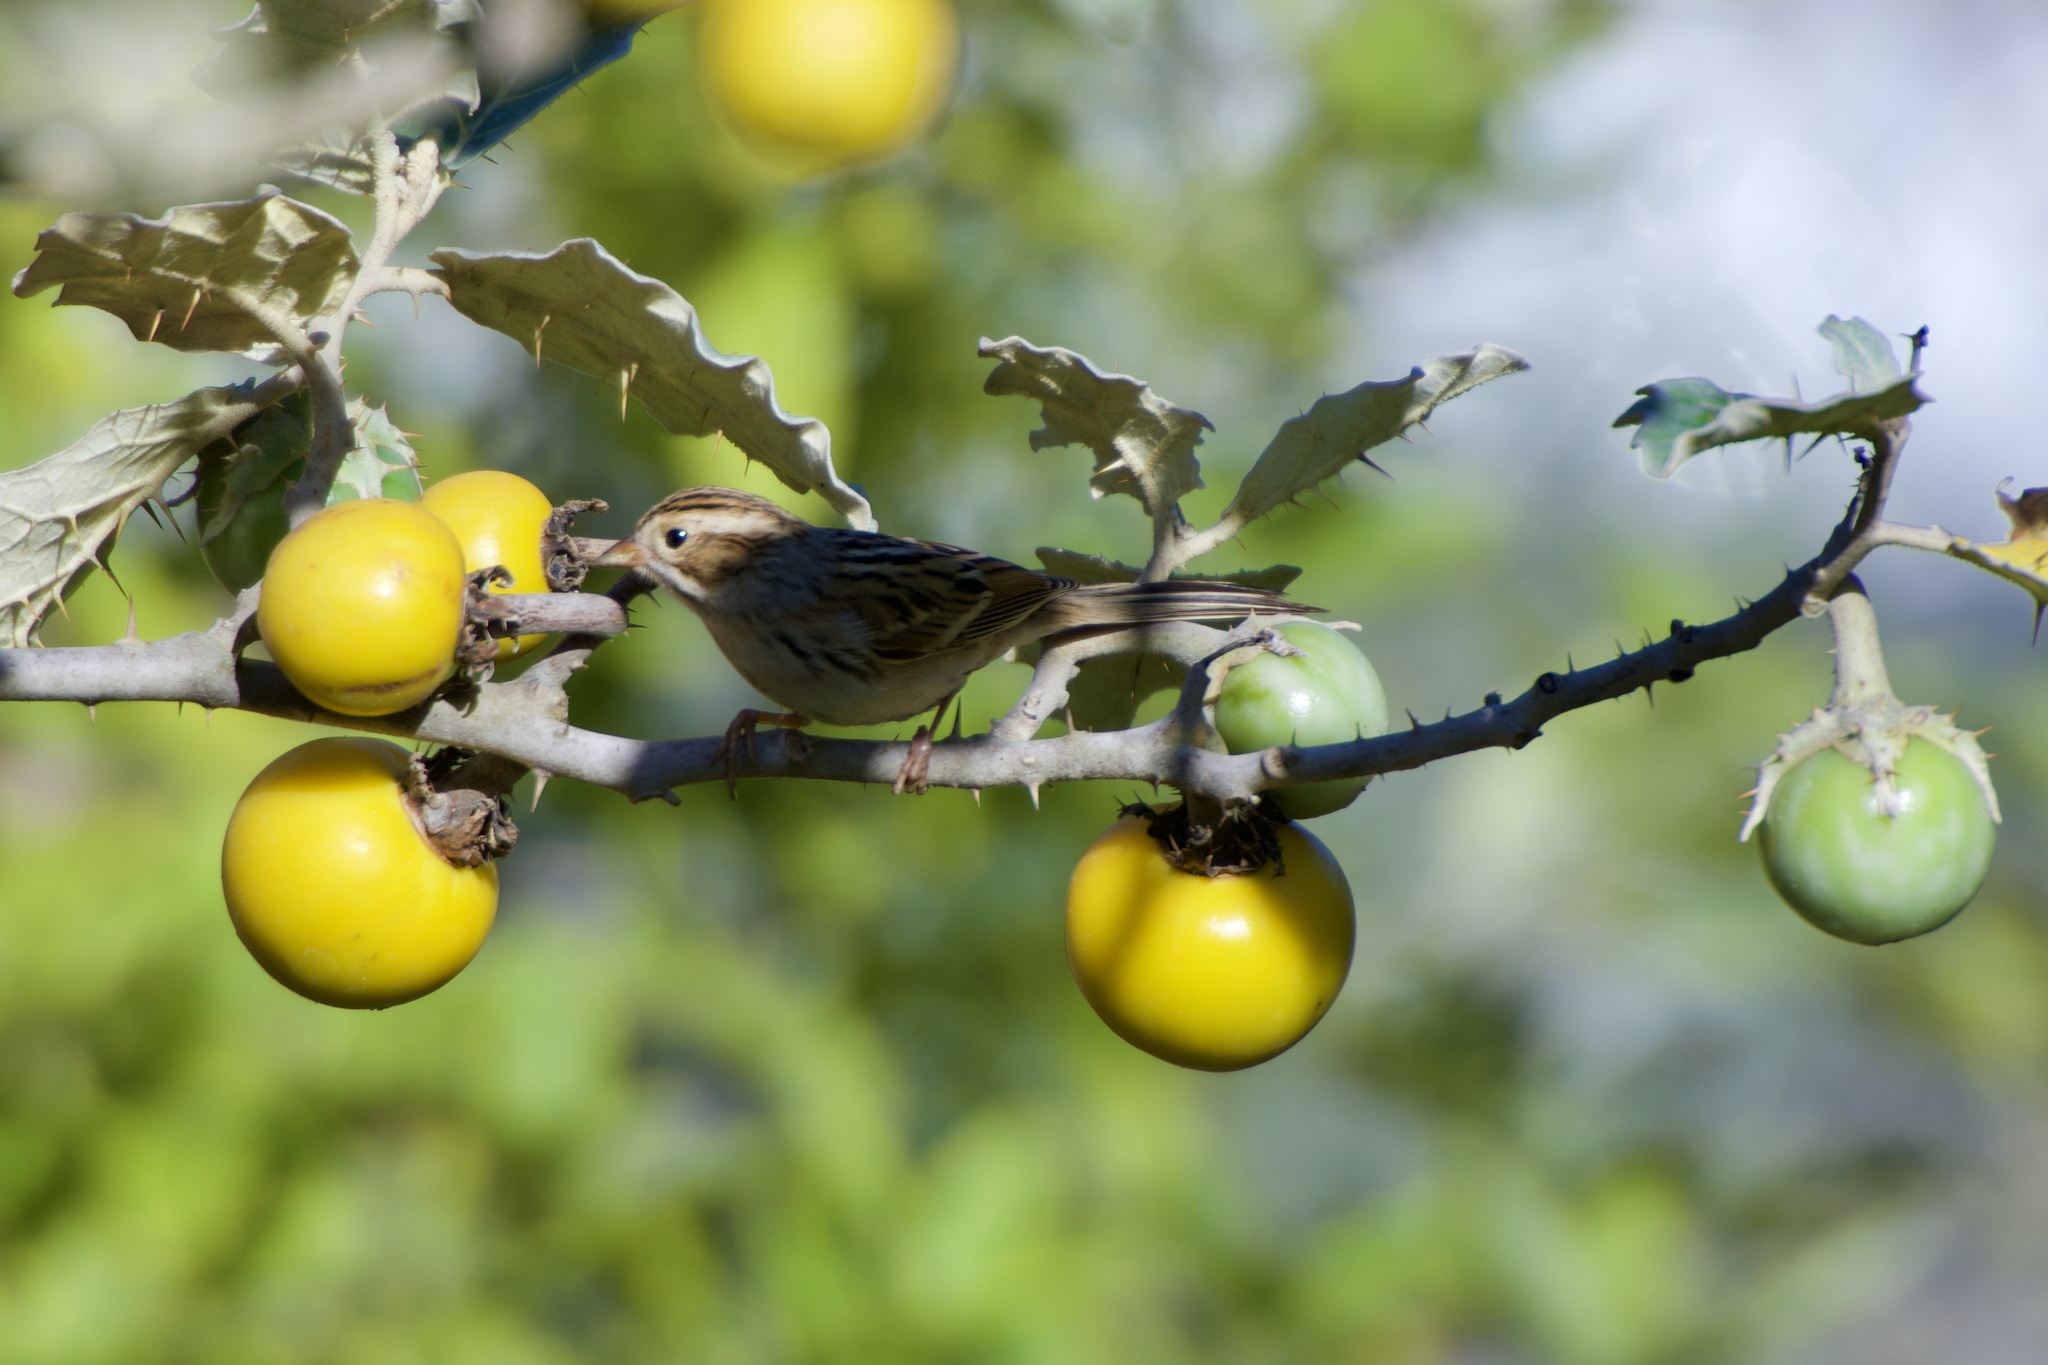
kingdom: Animalia
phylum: Chordata
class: Aves
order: Passeriformes
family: Passerellidae
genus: Spizella
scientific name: Spizella pallida
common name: Clay-colored sparrow
